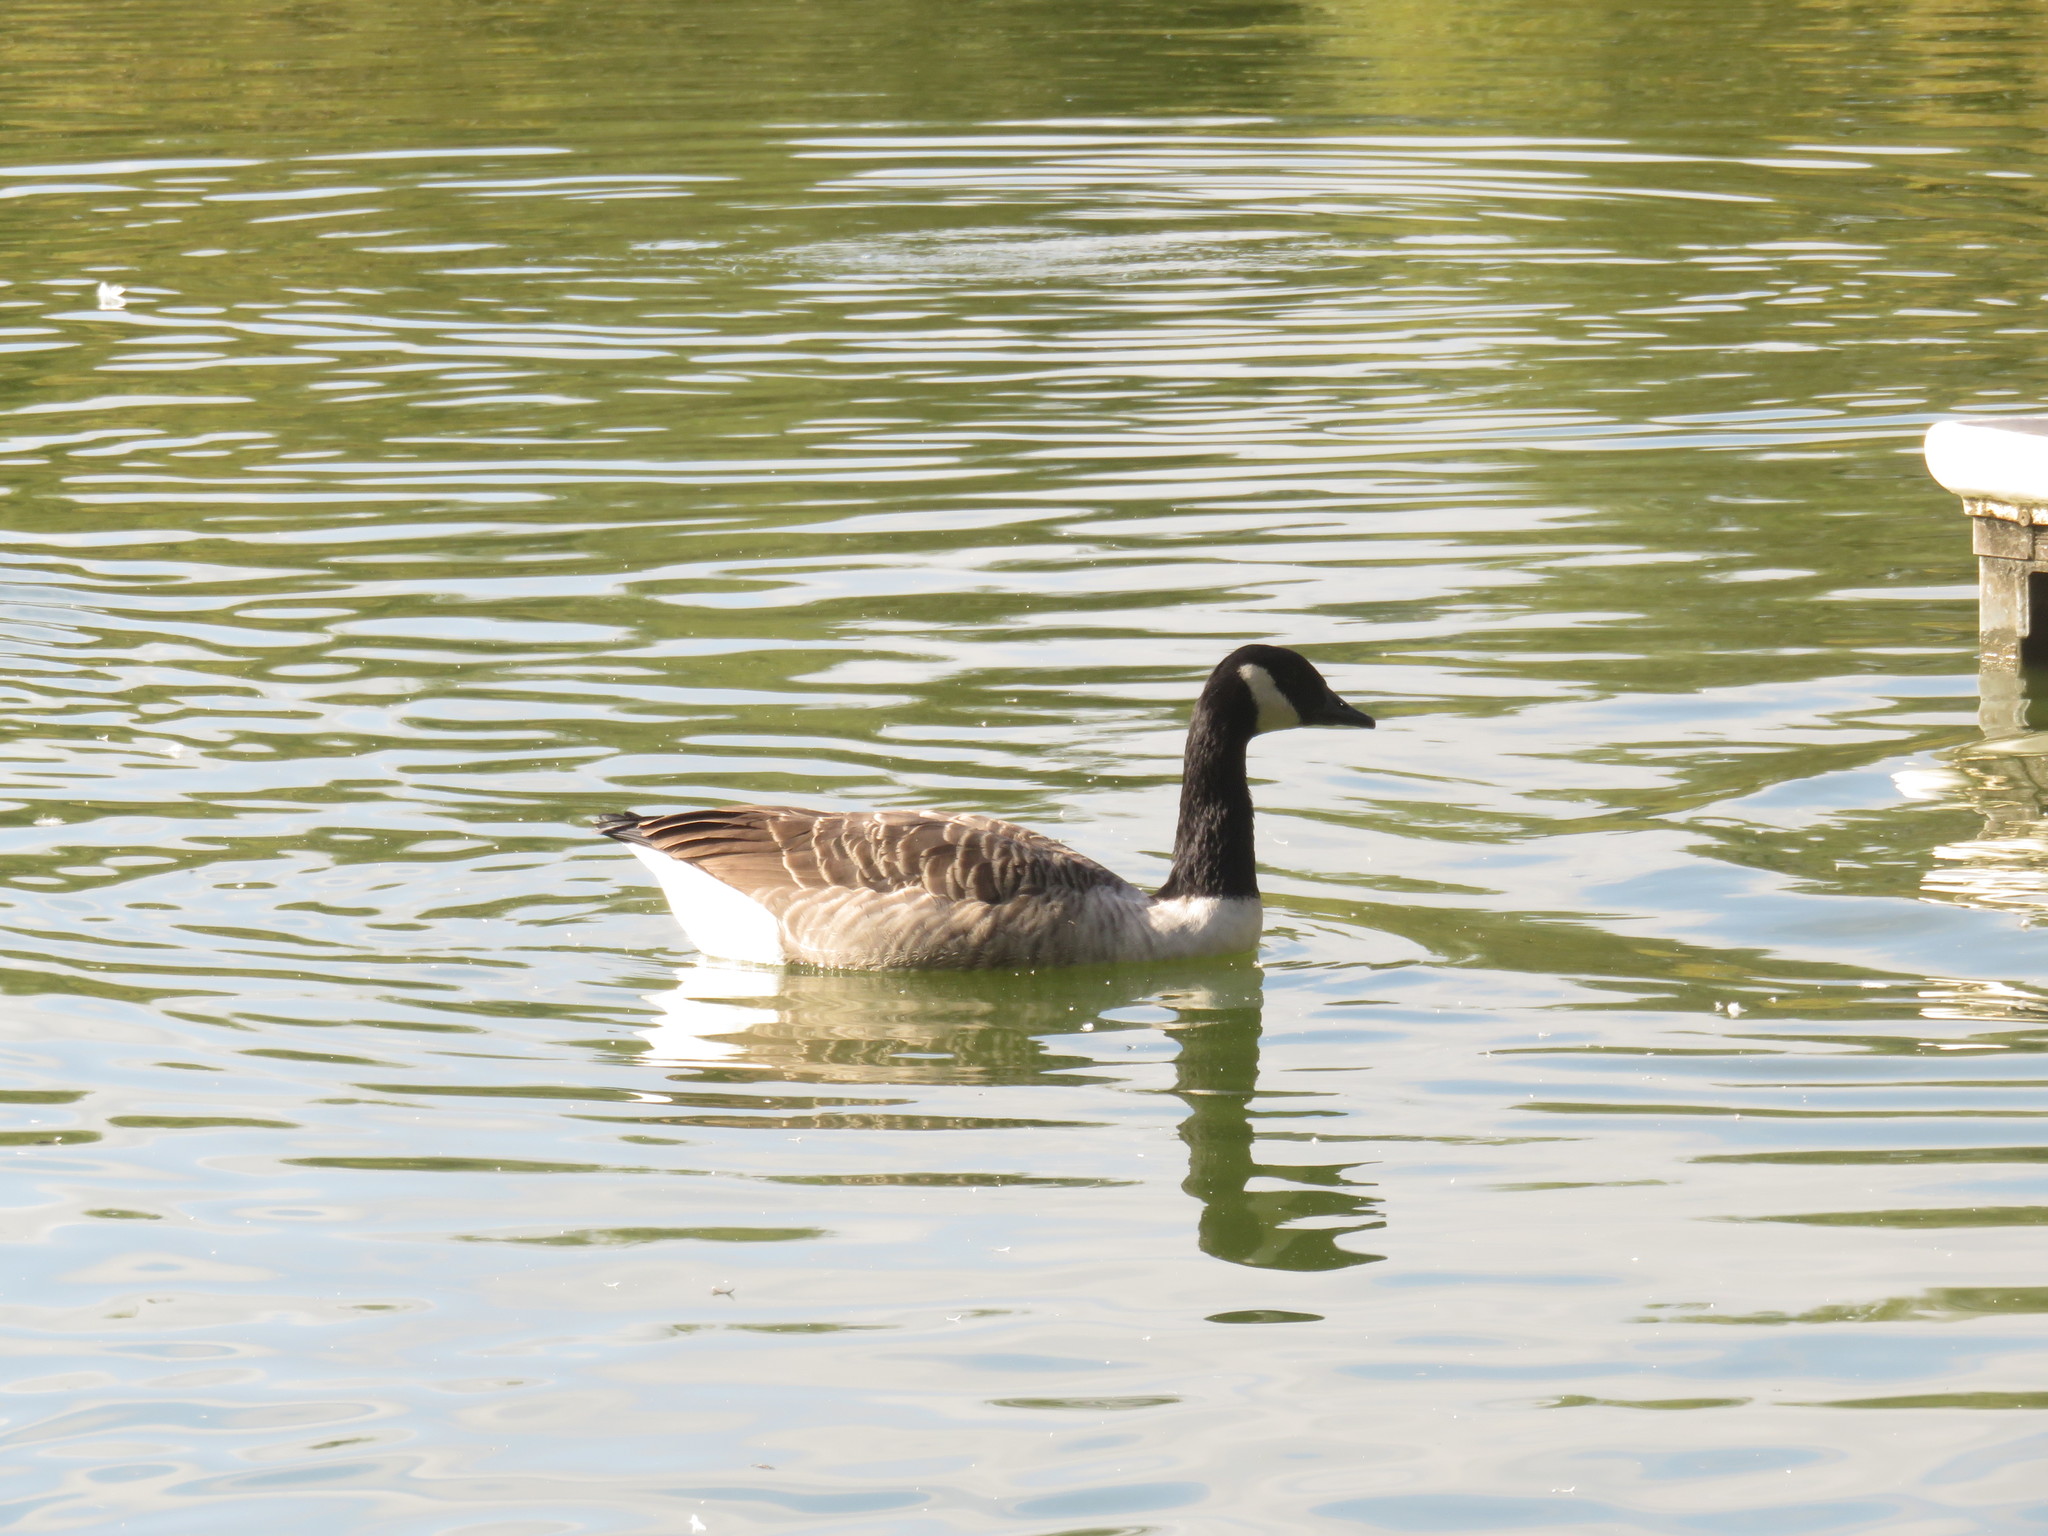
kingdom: Animalia
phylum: Chordata
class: Aves
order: Anseriformes
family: Anatidae
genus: Branta
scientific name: Branta canadensis
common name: Canada goose
